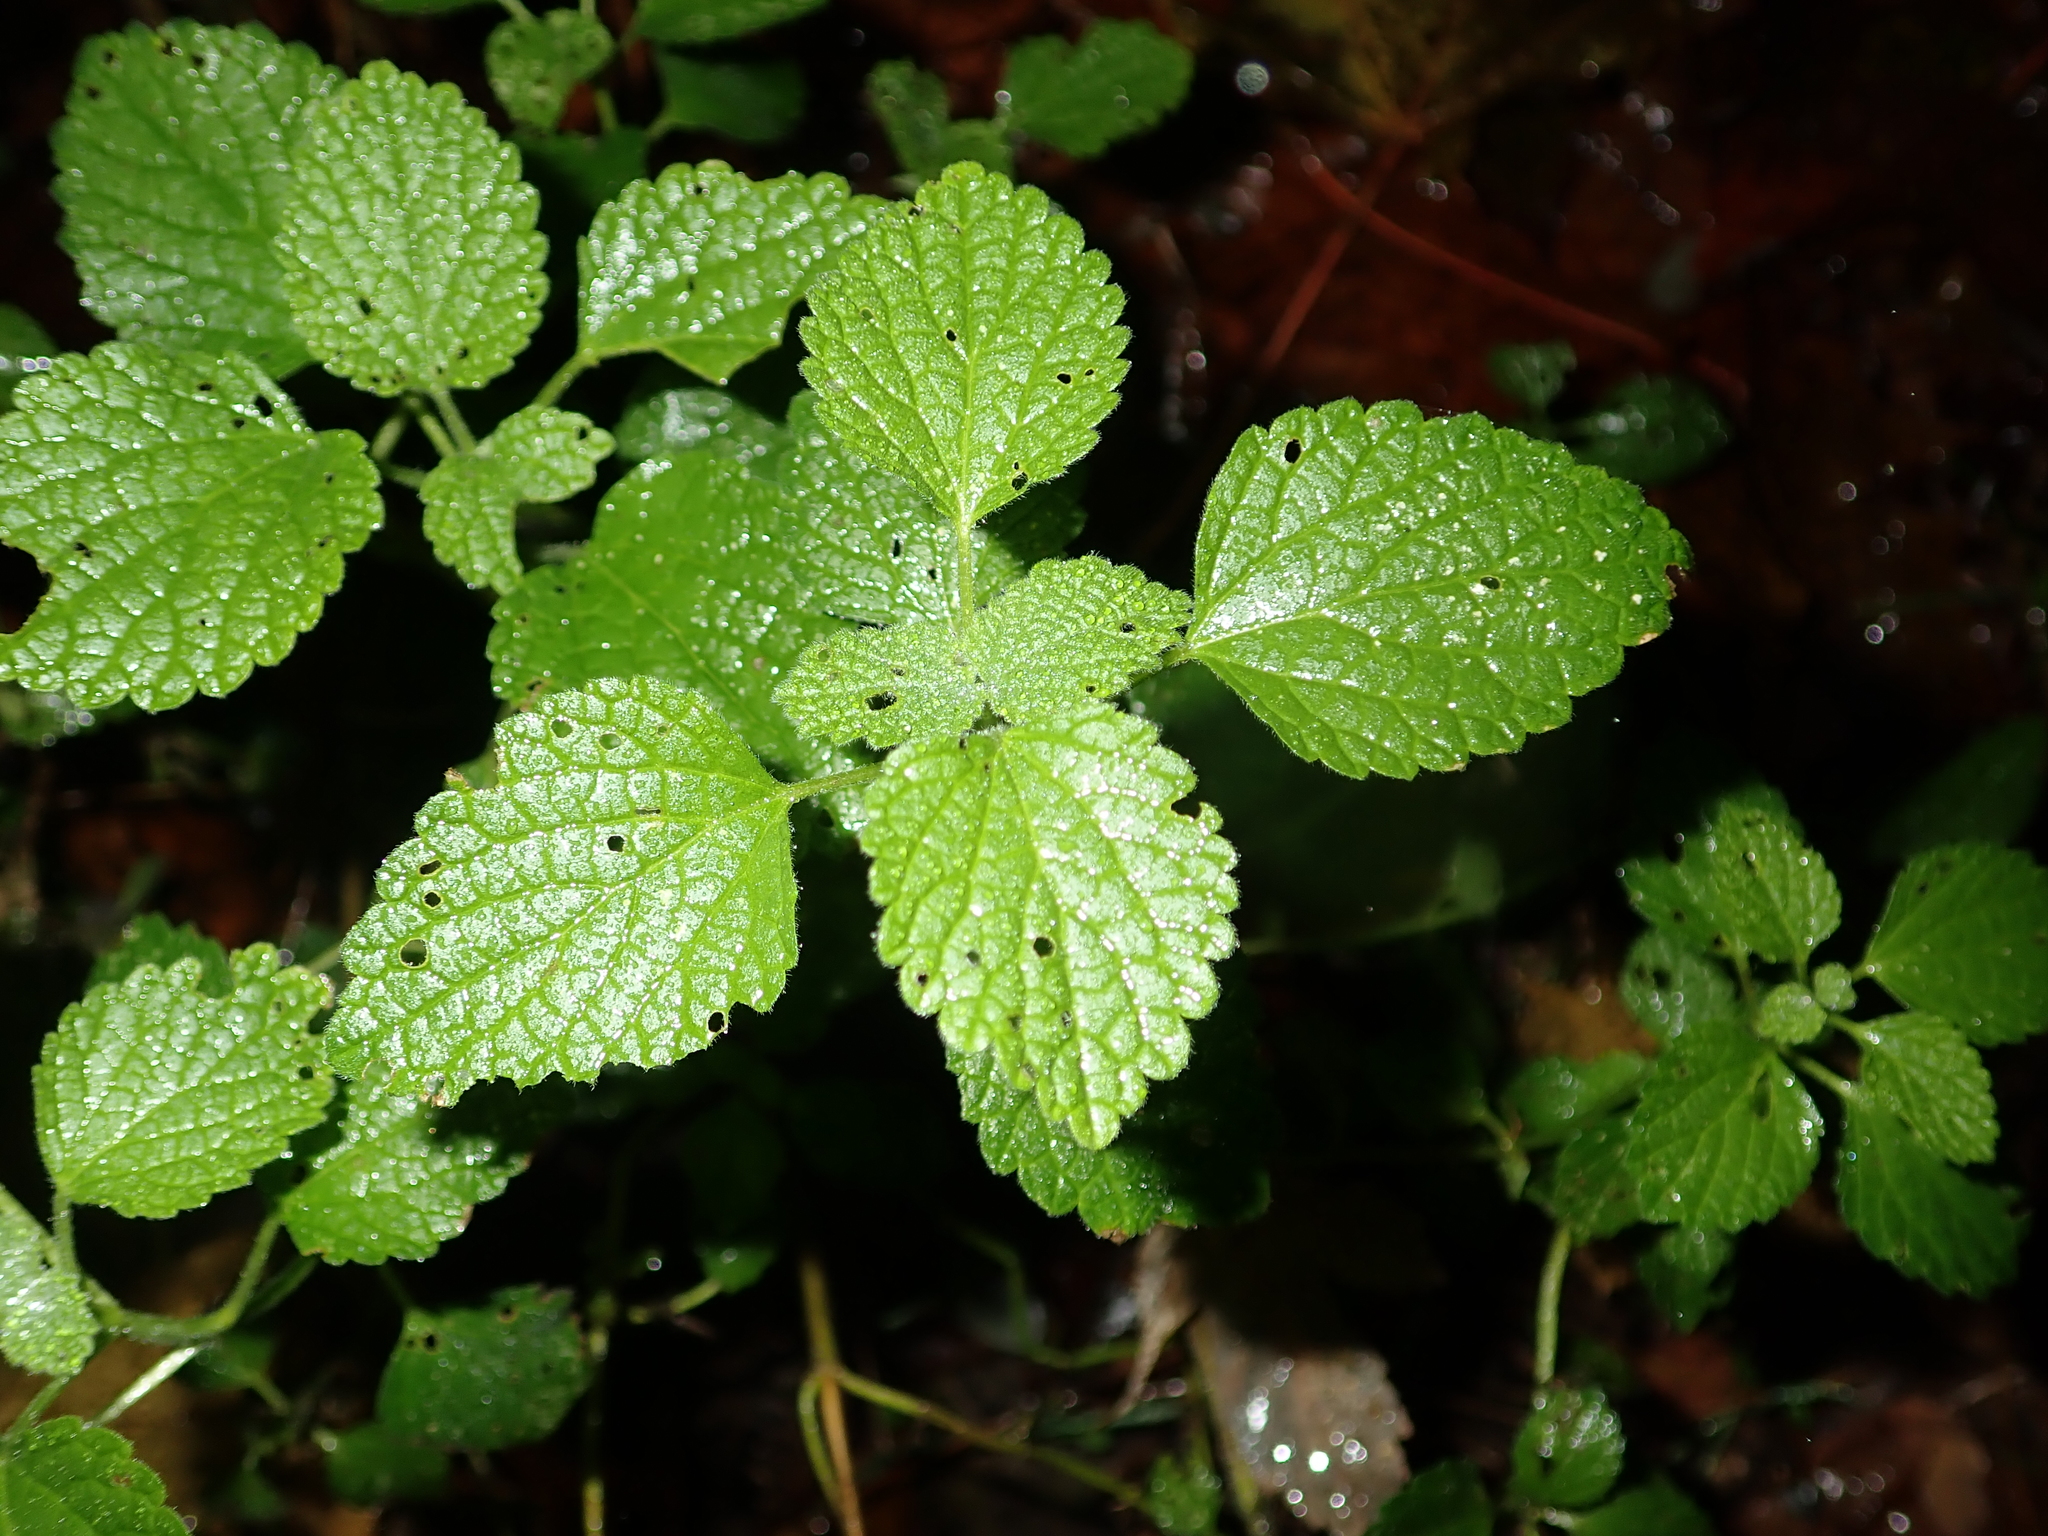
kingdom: Plantae
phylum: Tracheophyta
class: Magnoliopsida
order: Lamiales
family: Lamiaceae
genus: Melissa
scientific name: Melissa officinalis
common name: Balm
